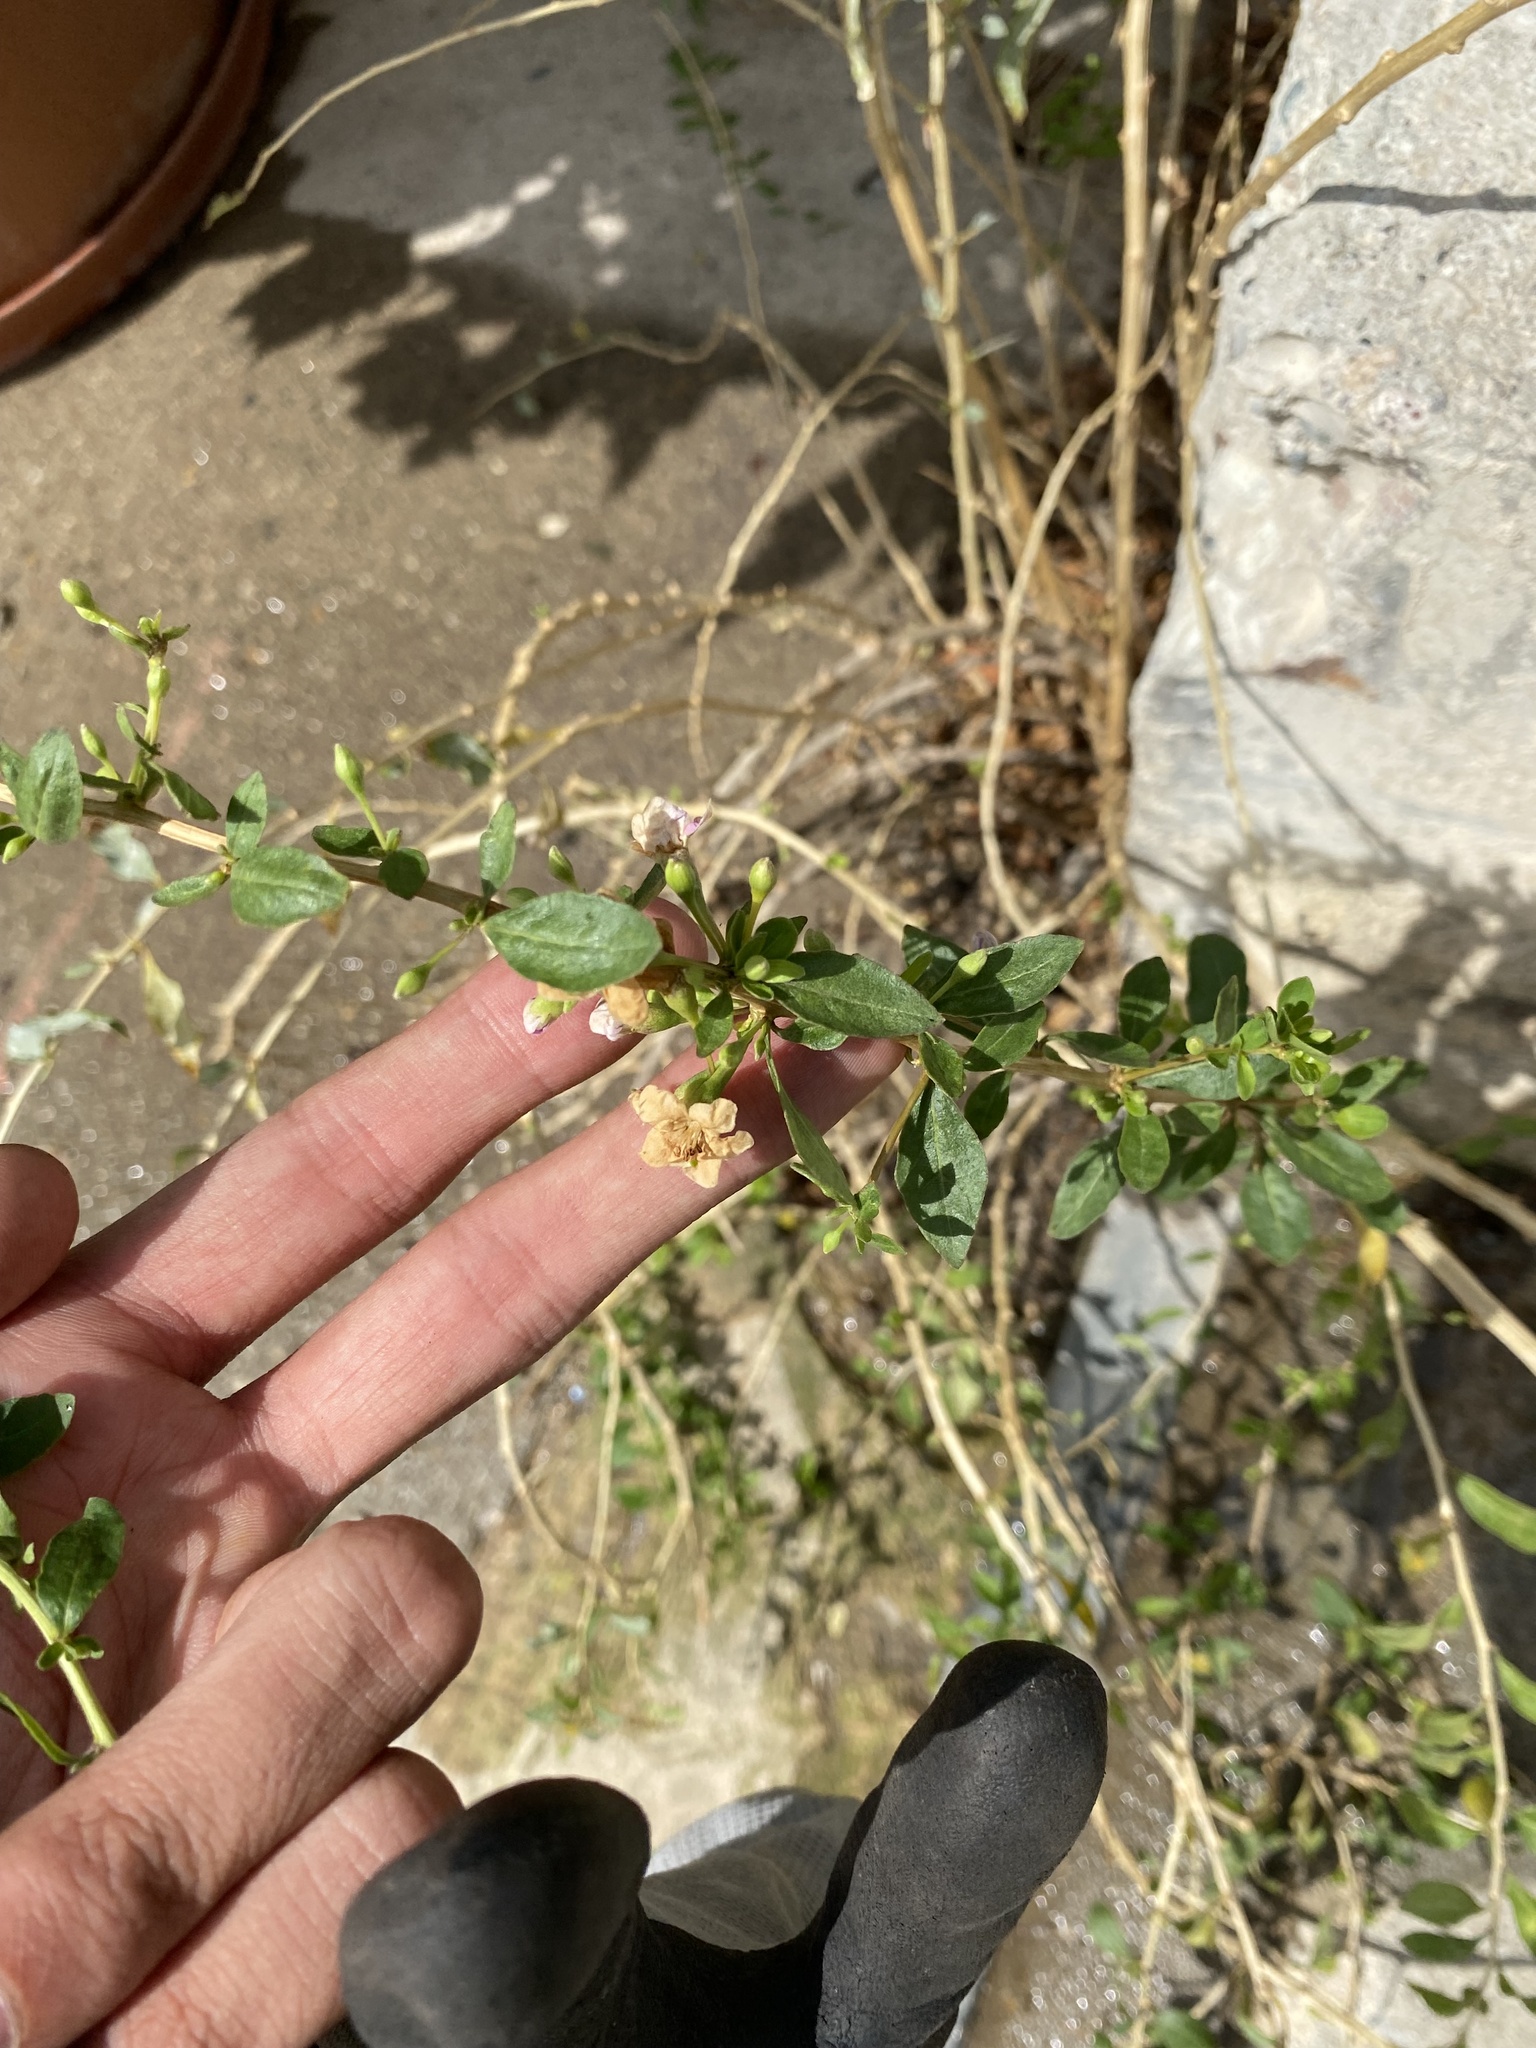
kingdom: Plantae
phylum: Tracheophyta
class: Magnoliopsida
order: Solanales
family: Solanaceae
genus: Lycium
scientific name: Lycium barbarum
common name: Duke of argyll's teaplant
